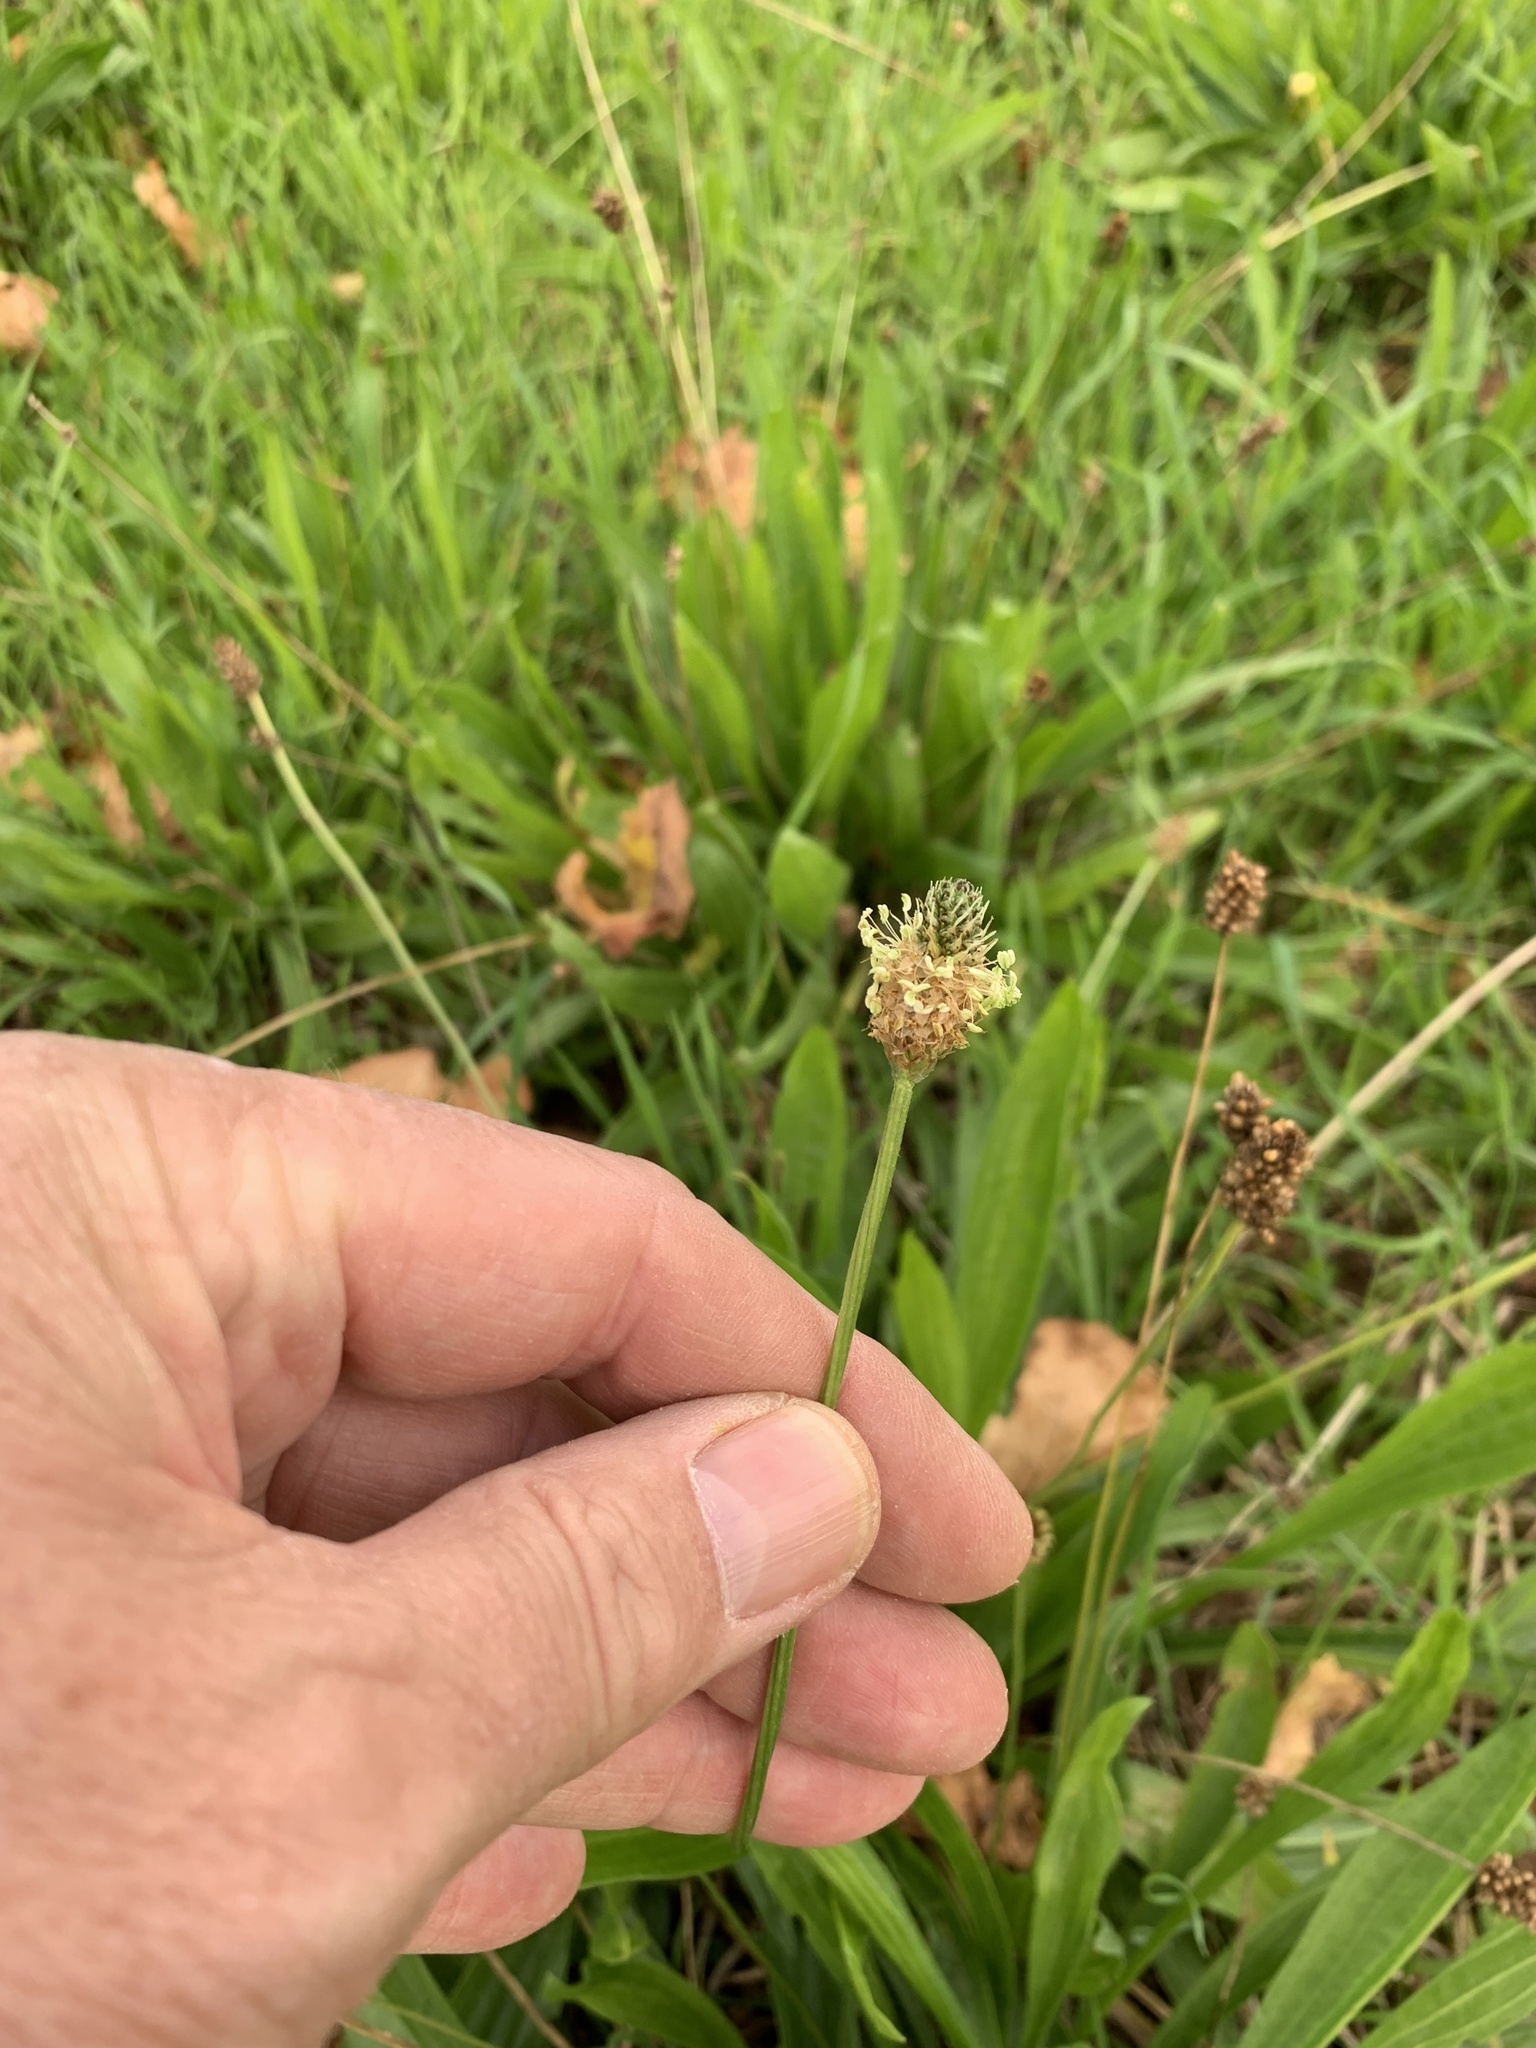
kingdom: Plantae
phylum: Tracheophyta
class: Magnoliopsida
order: Lamiales
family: Plantaginaceae
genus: Plantago
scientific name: Plantago lanceolata
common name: Ribwort plantain
